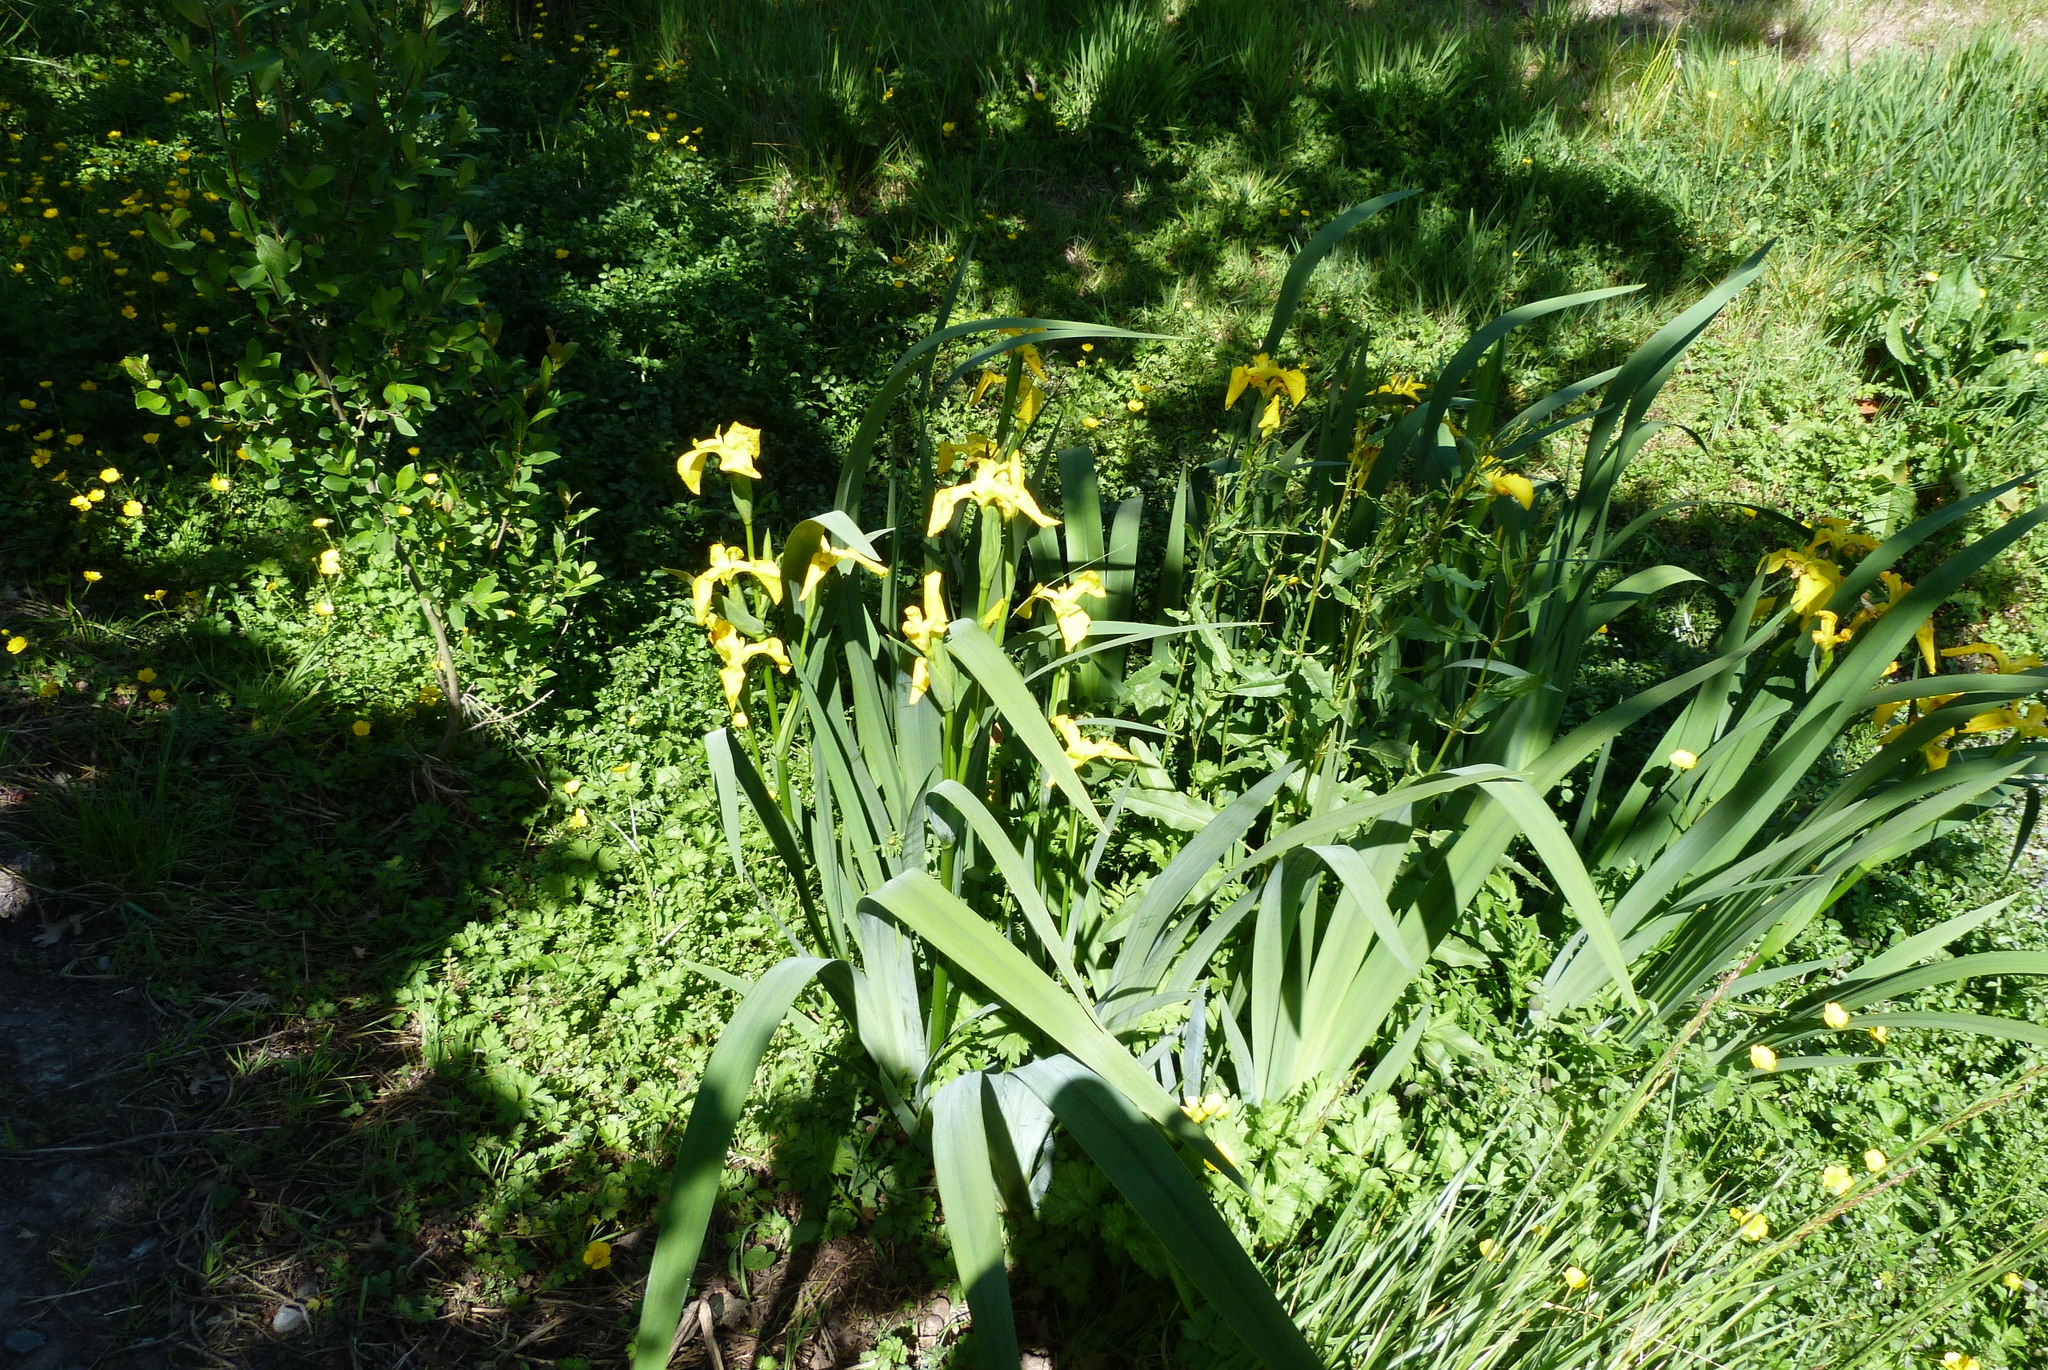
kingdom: Plantae
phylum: Tracheophyta
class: Liliopsida
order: Asparagales
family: Iridaceae
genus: Iris
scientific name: Iris pseudacorus
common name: Yellow flag
